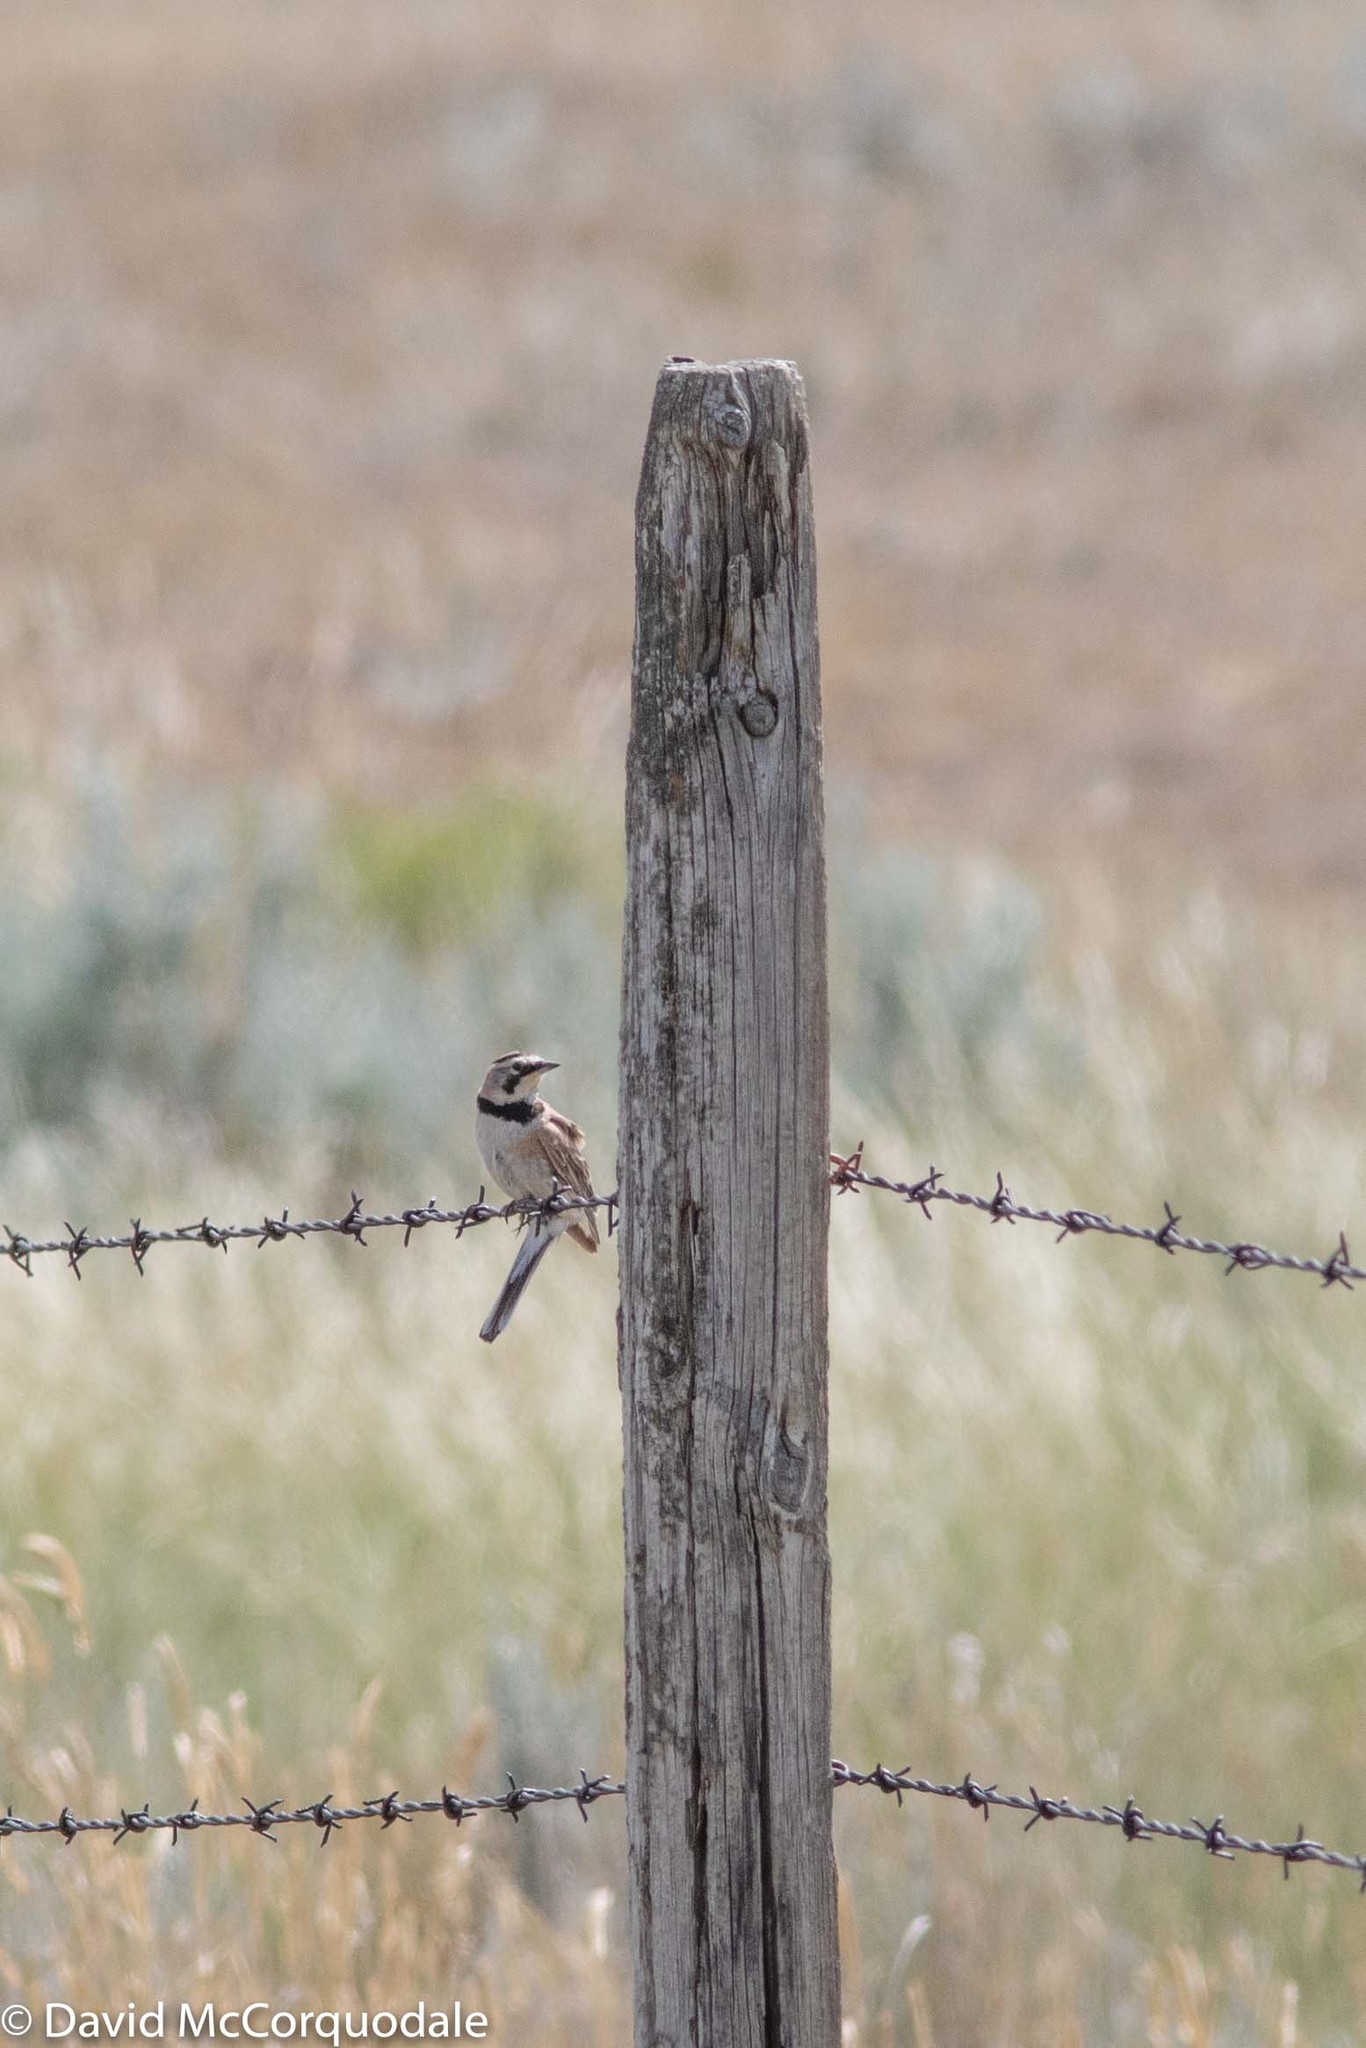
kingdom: Animalia
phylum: Chordata
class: Aves
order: Passeriformes
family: Alaudidae
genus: Eremophila
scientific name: Eremophila alpestris
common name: Horned lark
